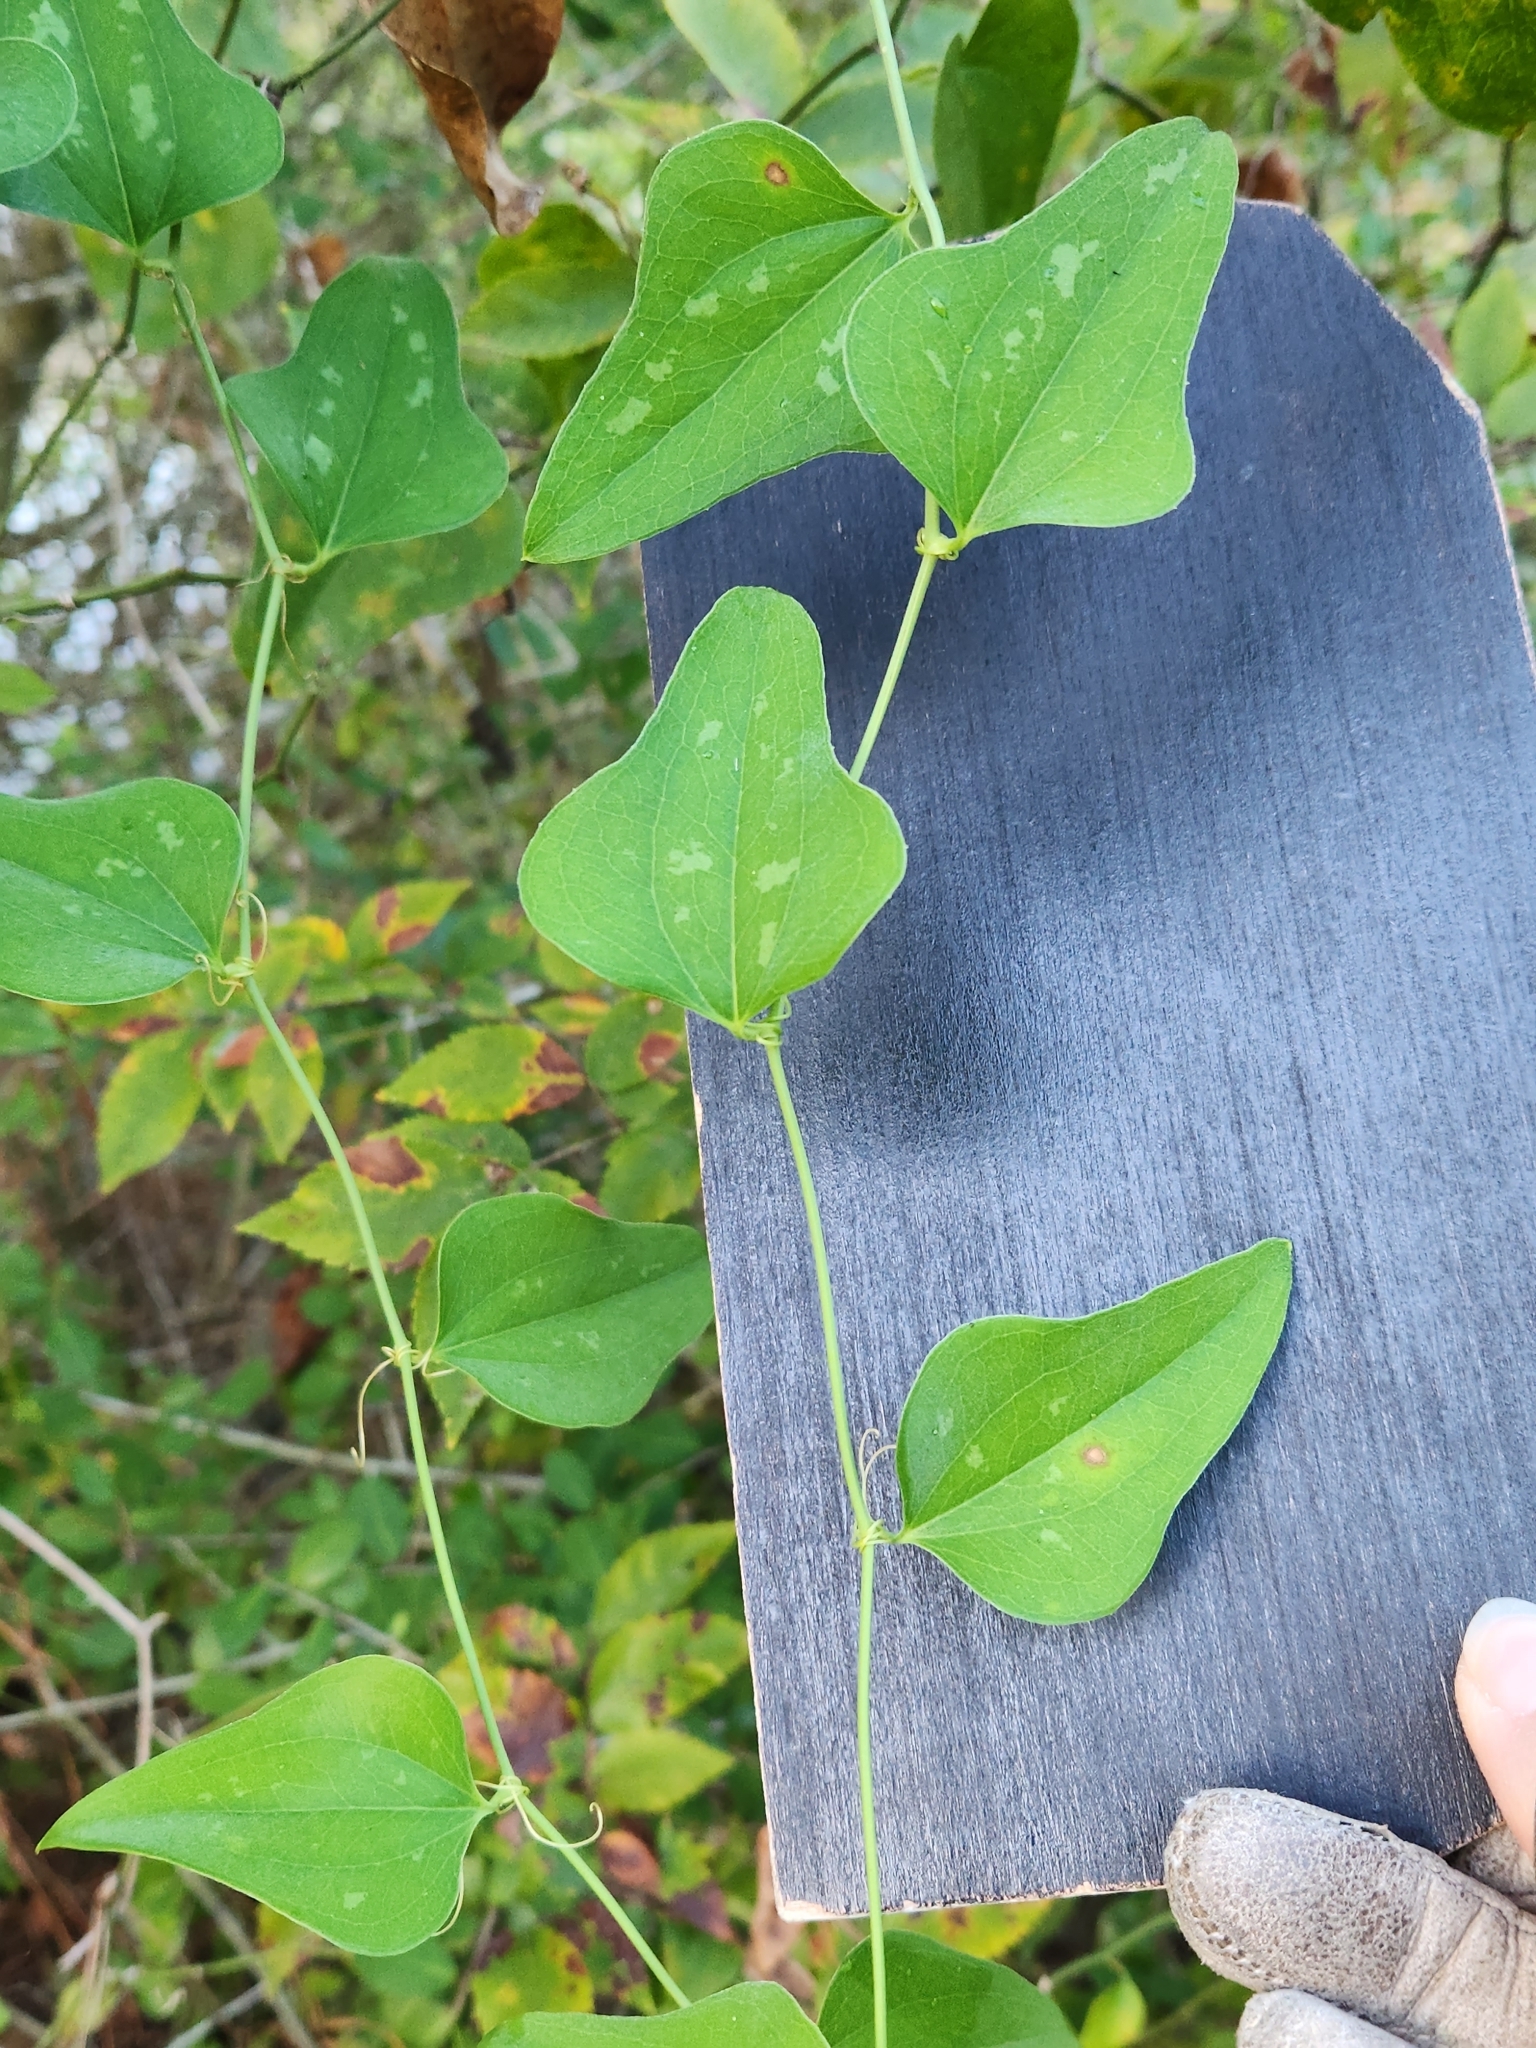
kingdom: Plantae
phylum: Tracheophyta
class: Liliopsida
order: Liliales
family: Smilacaceae
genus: Smilax
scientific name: Smilax bona-nox
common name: Catbrier
